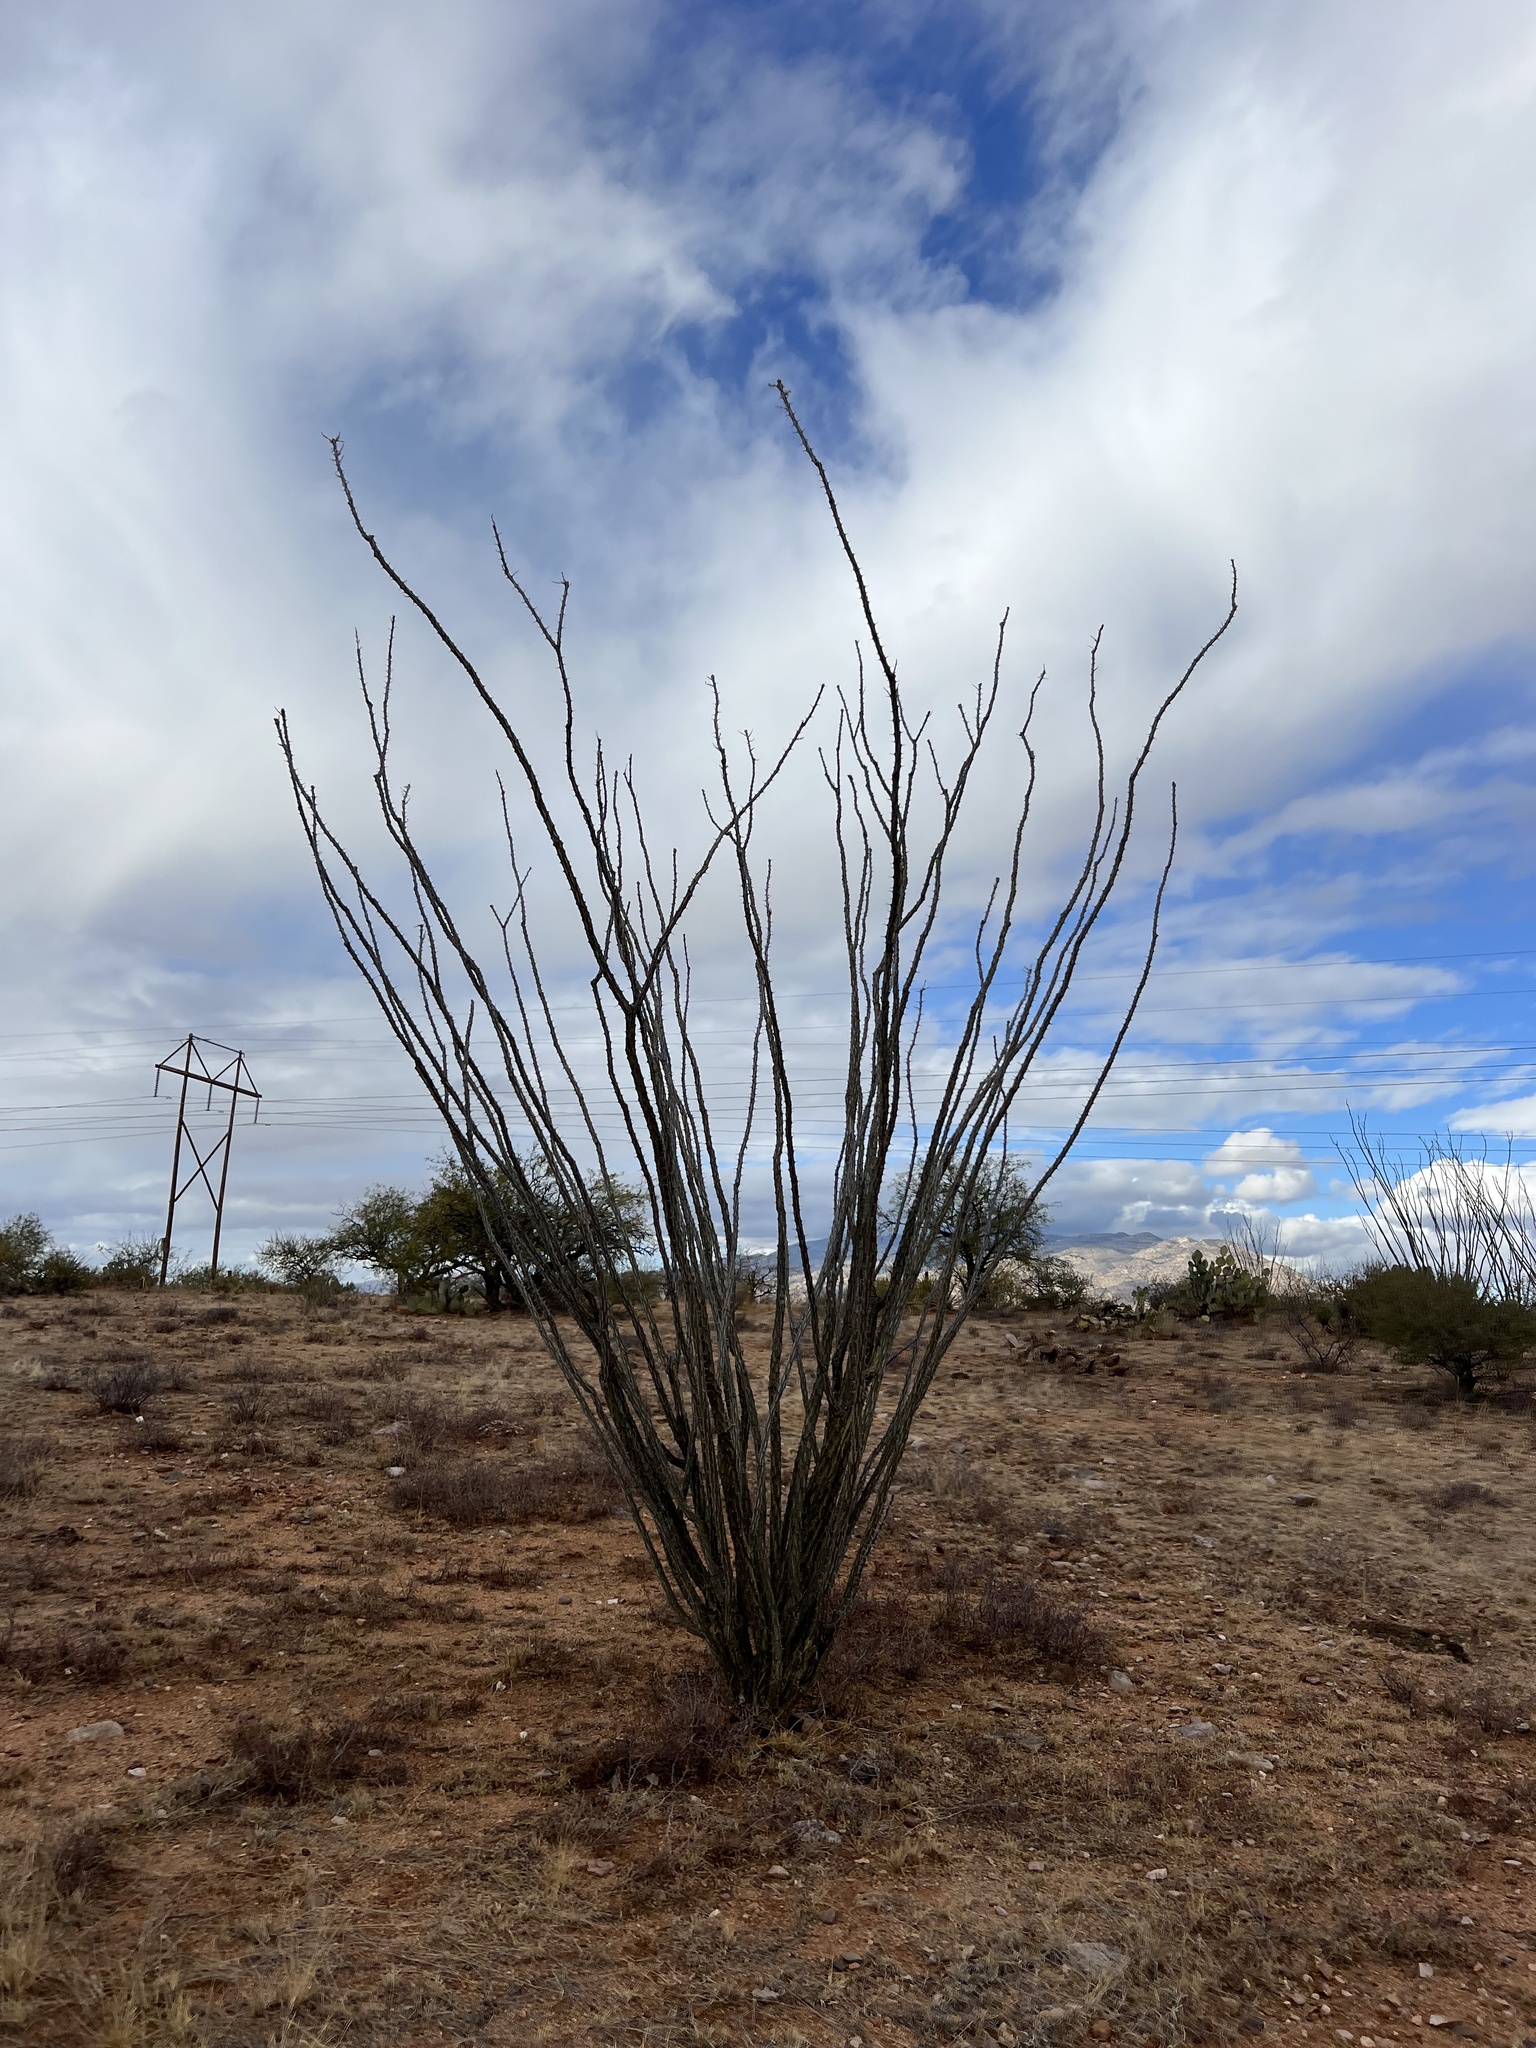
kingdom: Plantae
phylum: Tracheophyta
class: Magnoliopsida
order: Ericales
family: Fouquieriaceae
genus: Fouquieria
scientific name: Fouquieria splendens
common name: Vine-cactus
